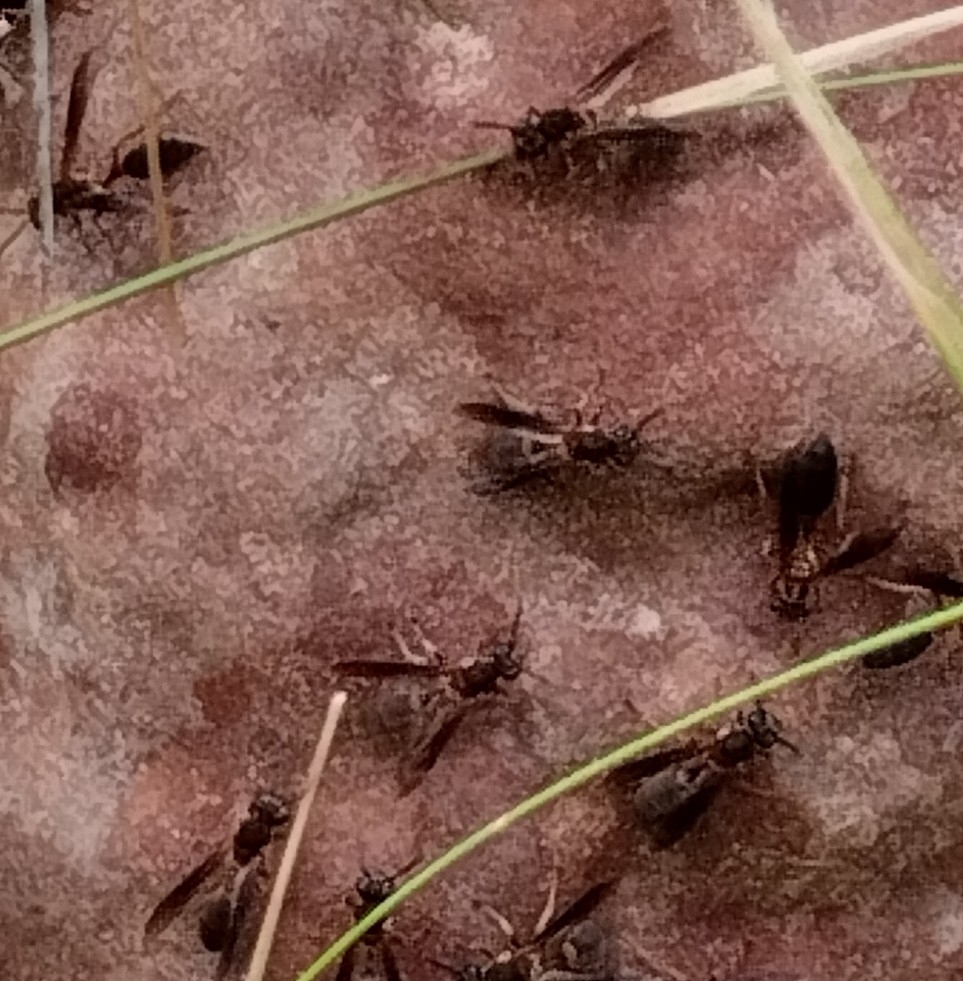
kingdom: Animalia
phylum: Arthropoda
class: Insecta
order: Hymenoptera
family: Eumenidae
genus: Polybia
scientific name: Polybia sericea
